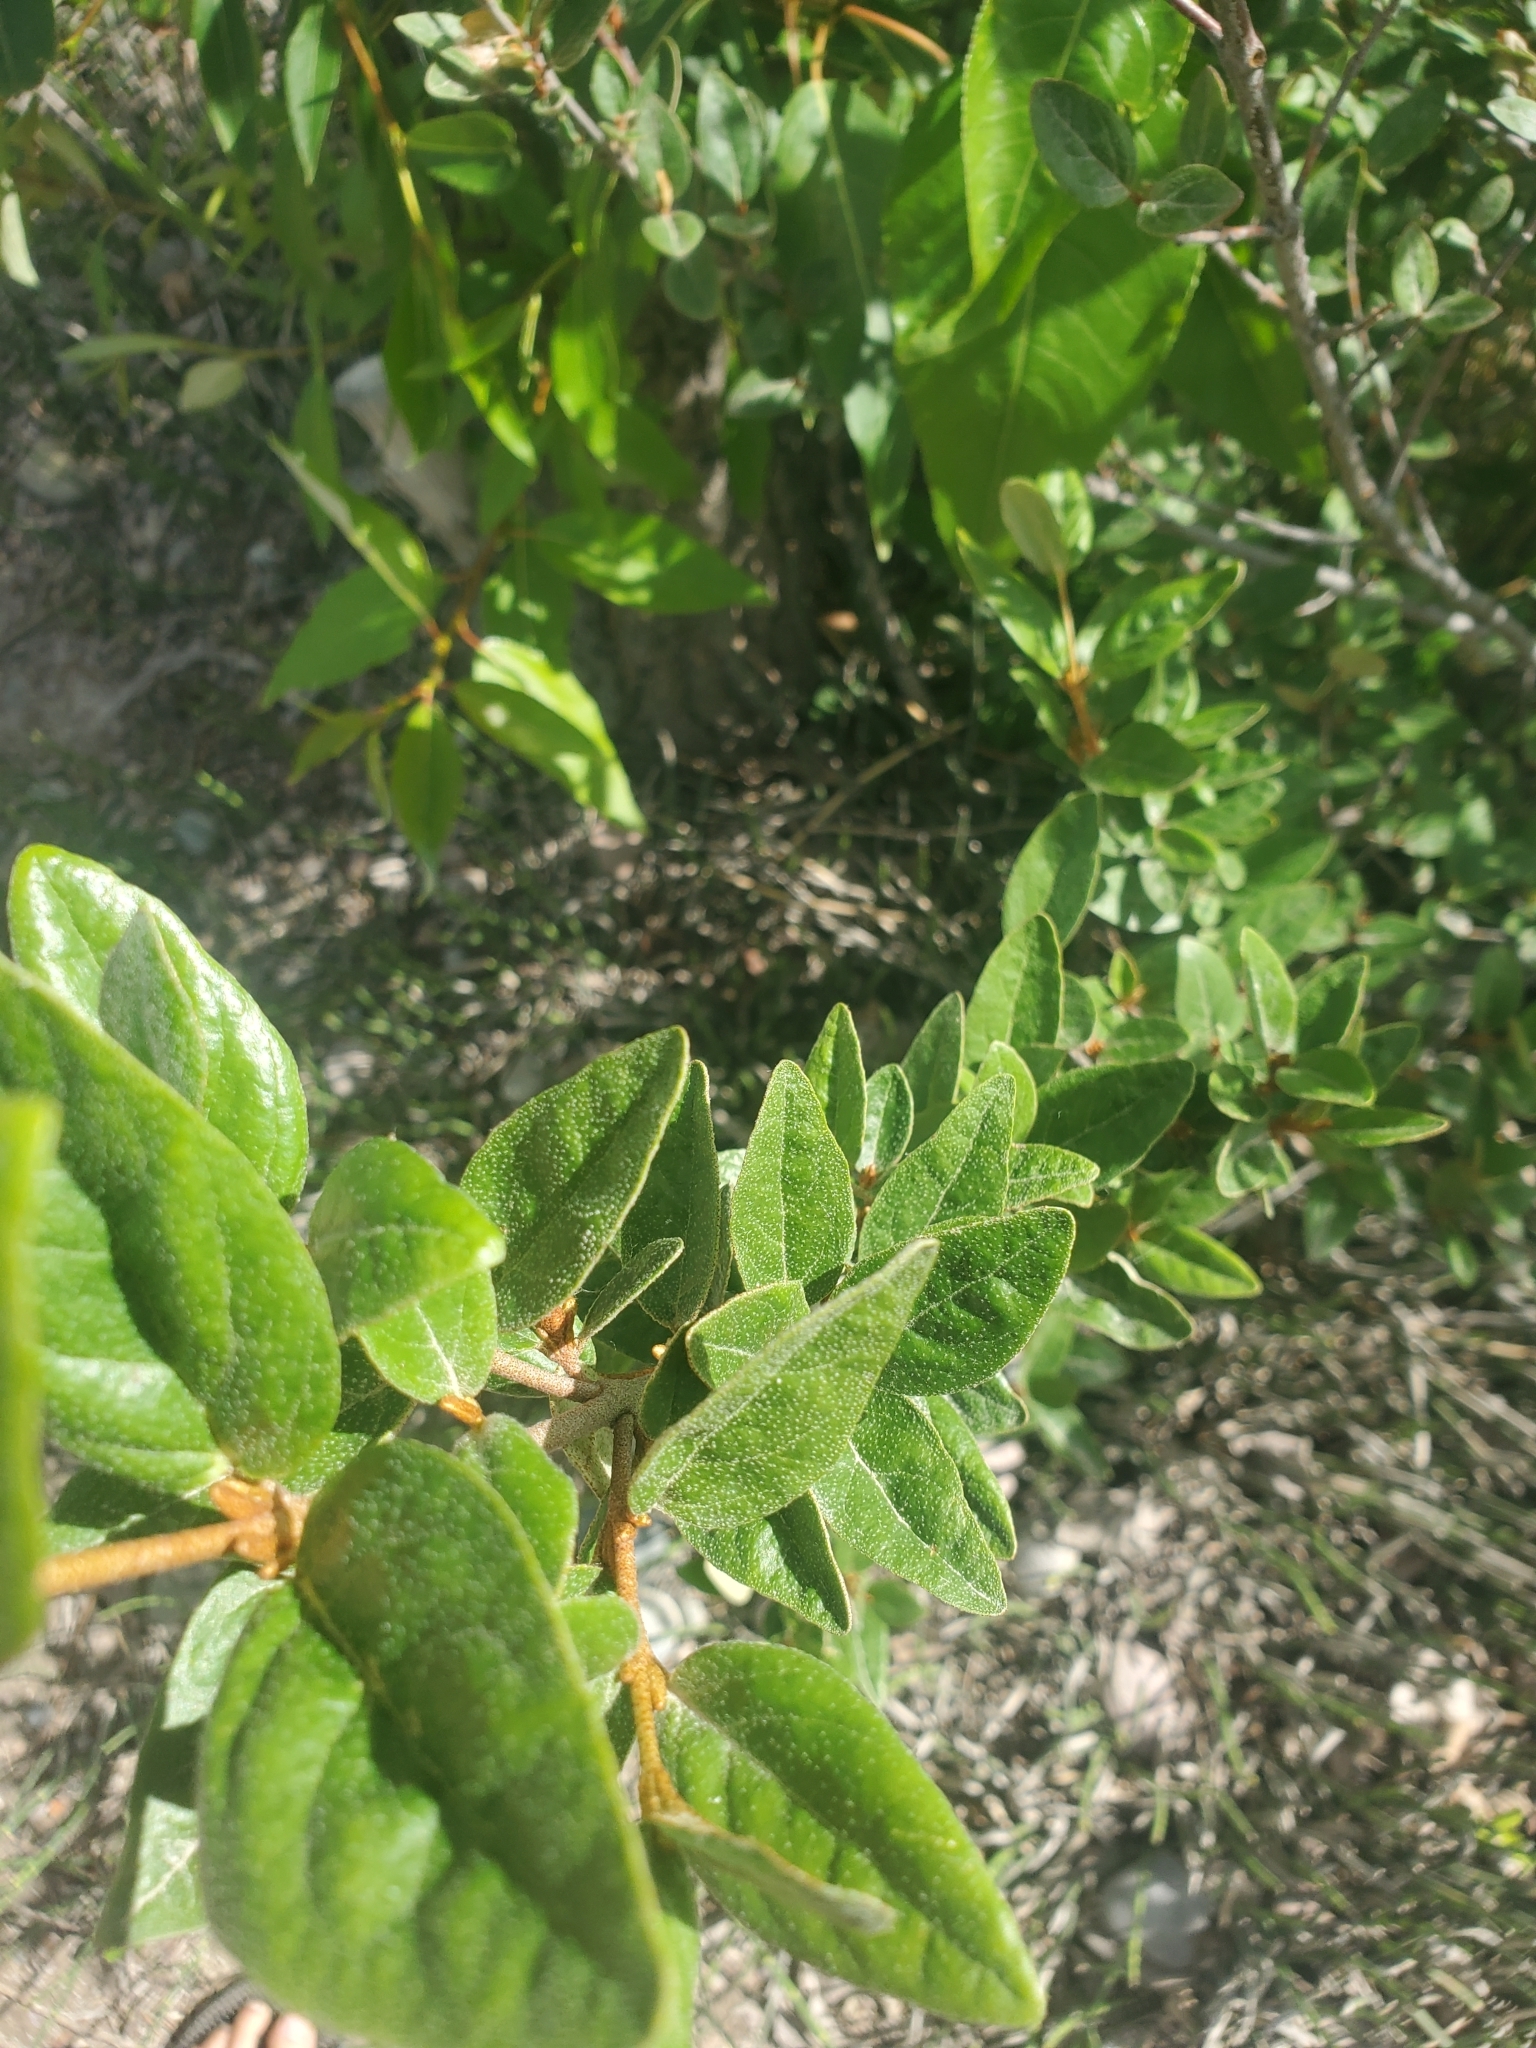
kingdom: Plantae
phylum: Tracheophyta
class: Magnoliopsida
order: Rosales
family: Elaeagnaceae
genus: Shepherdia
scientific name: Shepherdia canadensis
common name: Soapberry
